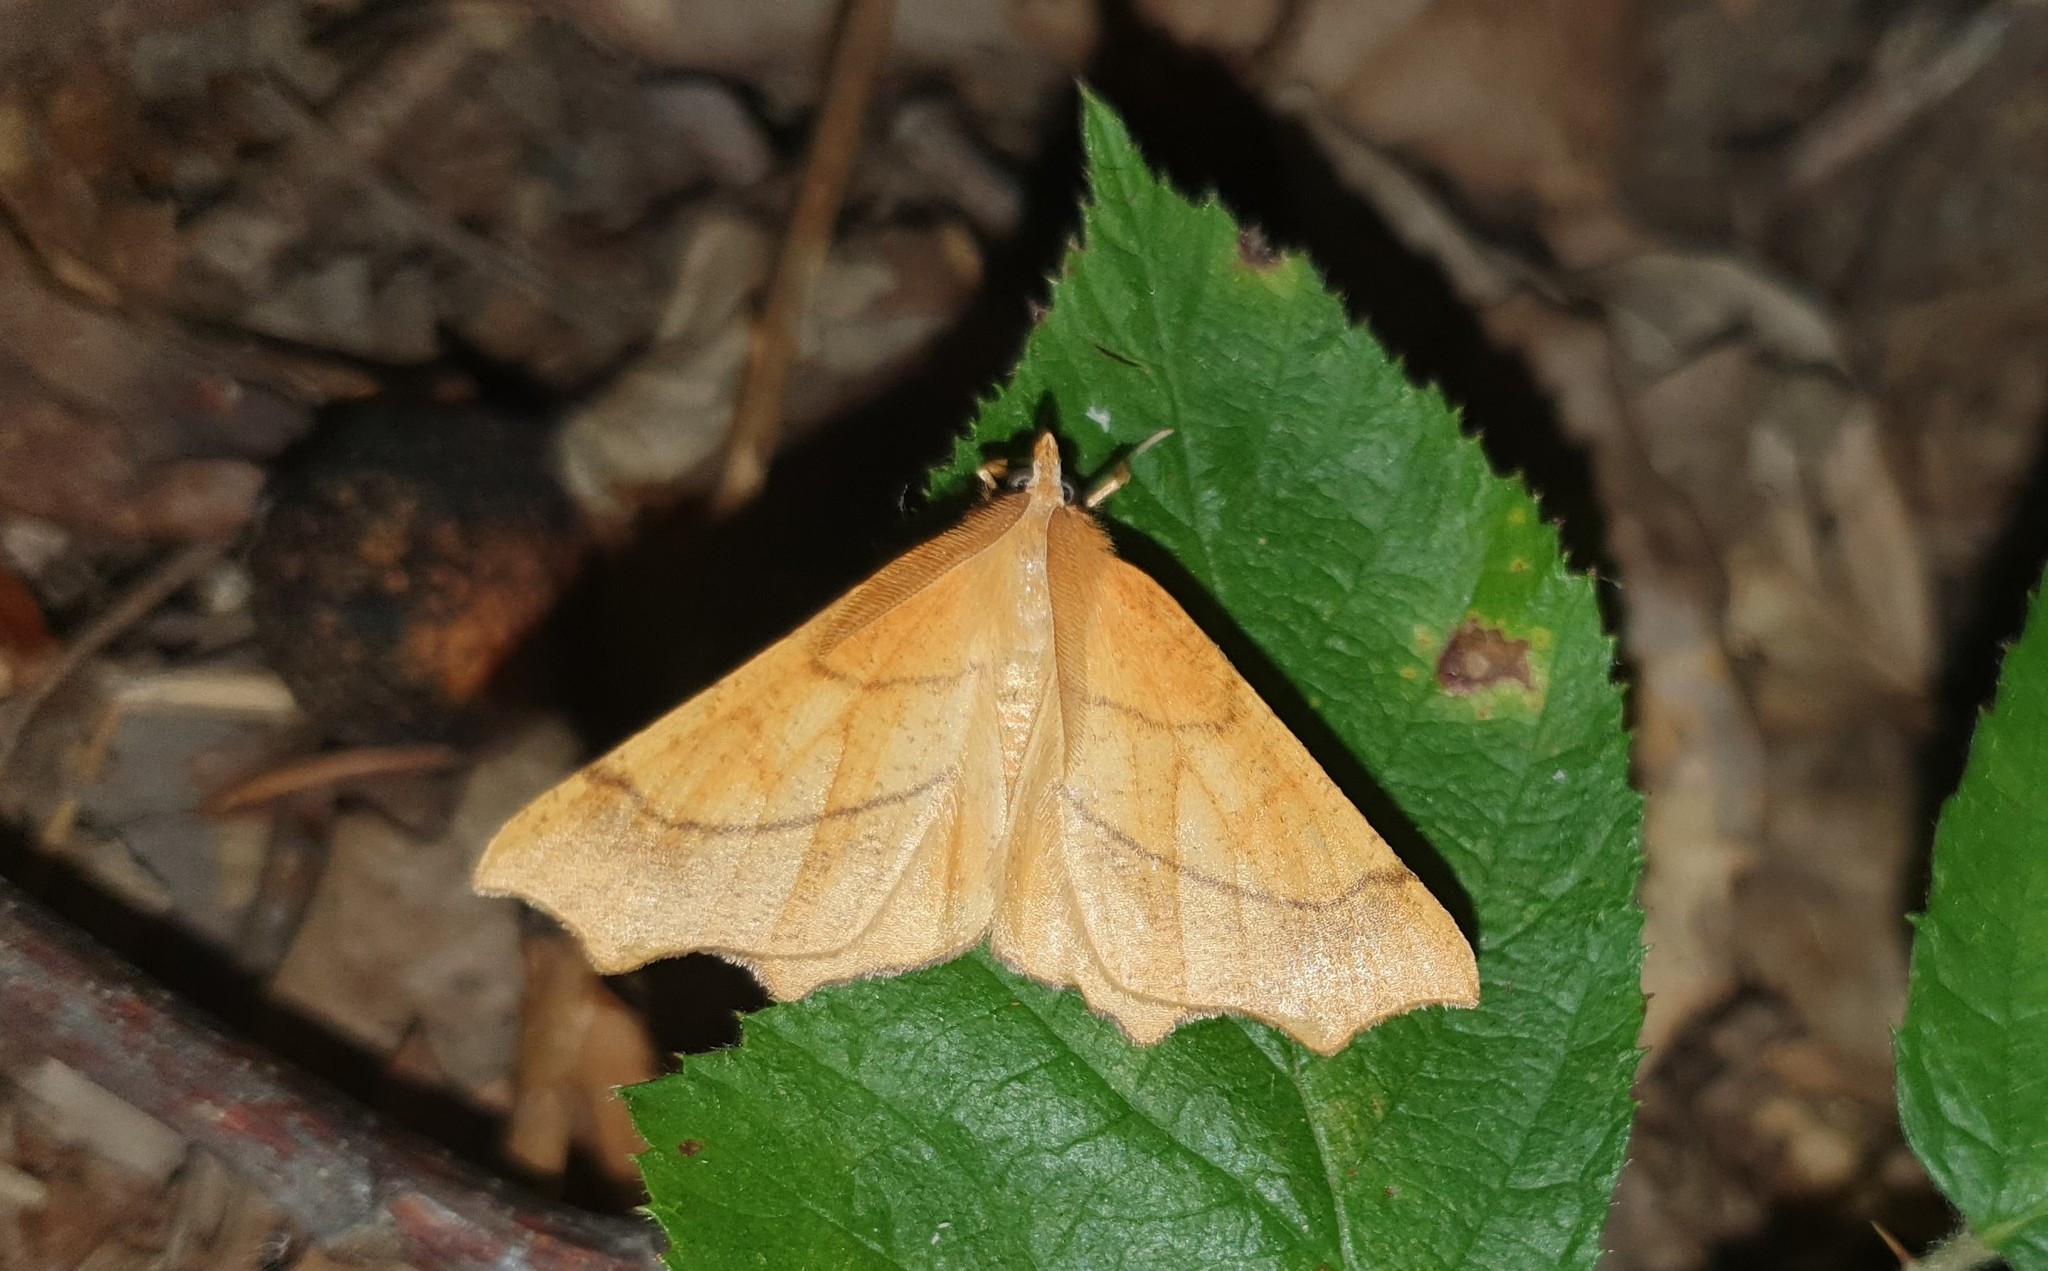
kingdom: Animalia
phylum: Arthropoda
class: Insecta
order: Lepidoptera
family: Geometridae
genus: Ennomos
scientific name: Ennomos quercinaria
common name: August thorn
